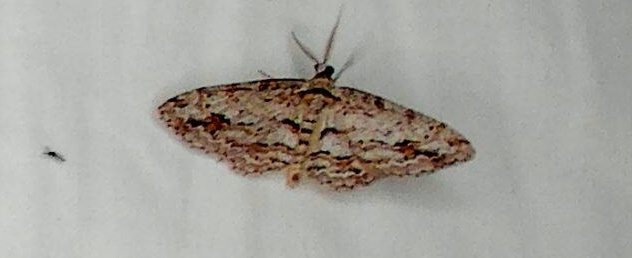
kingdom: Animalia
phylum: Arthropoda
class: Insecta
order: Lepidoptera
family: Geometridae
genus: Didymoctenia
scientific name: Didymoctenia exsuperata
